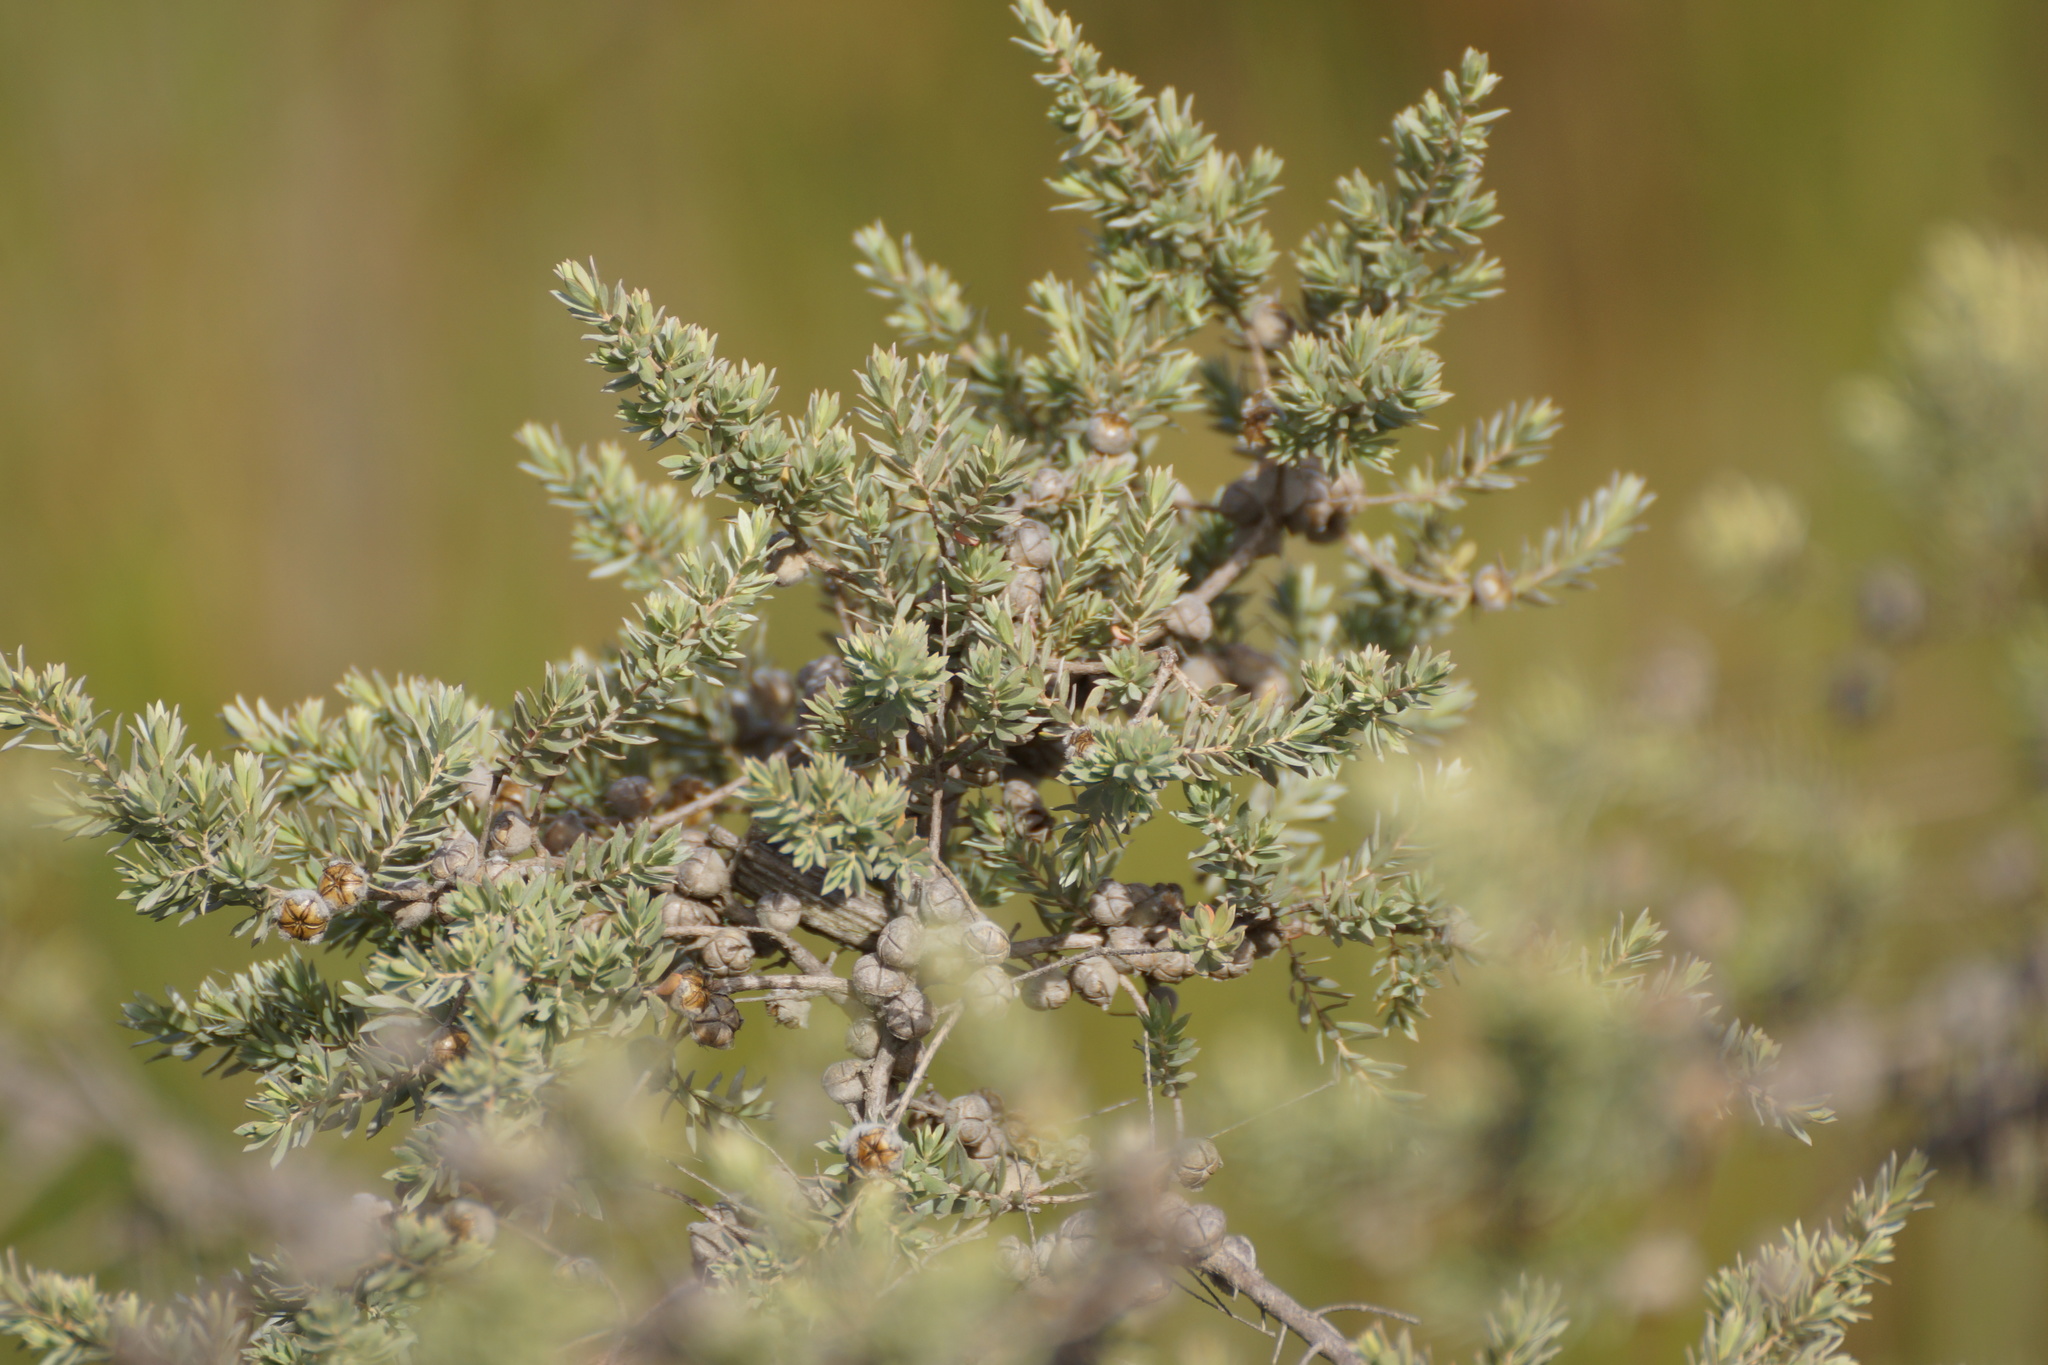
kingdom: Plantae
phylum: Tracheophyta
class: Magnoliopsida
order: Myrtales
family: Myrtaceae
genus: Leptospermum
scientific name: Leptospermum
